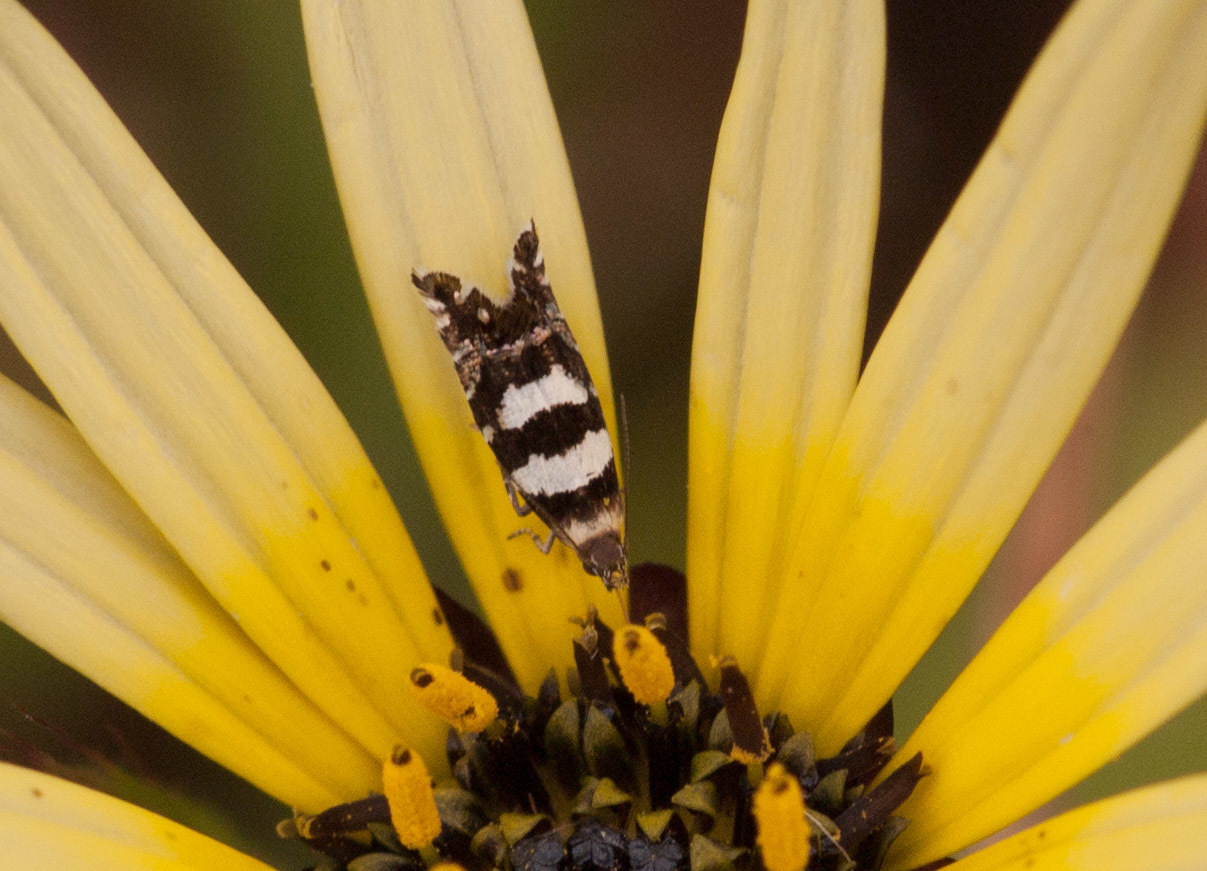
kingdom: Animalia
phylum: Arthropoda
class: Insecta
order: Lepidoptera
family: Glyphipterigidae
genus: Glyphipterix
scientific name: Glyphipterix meteora
